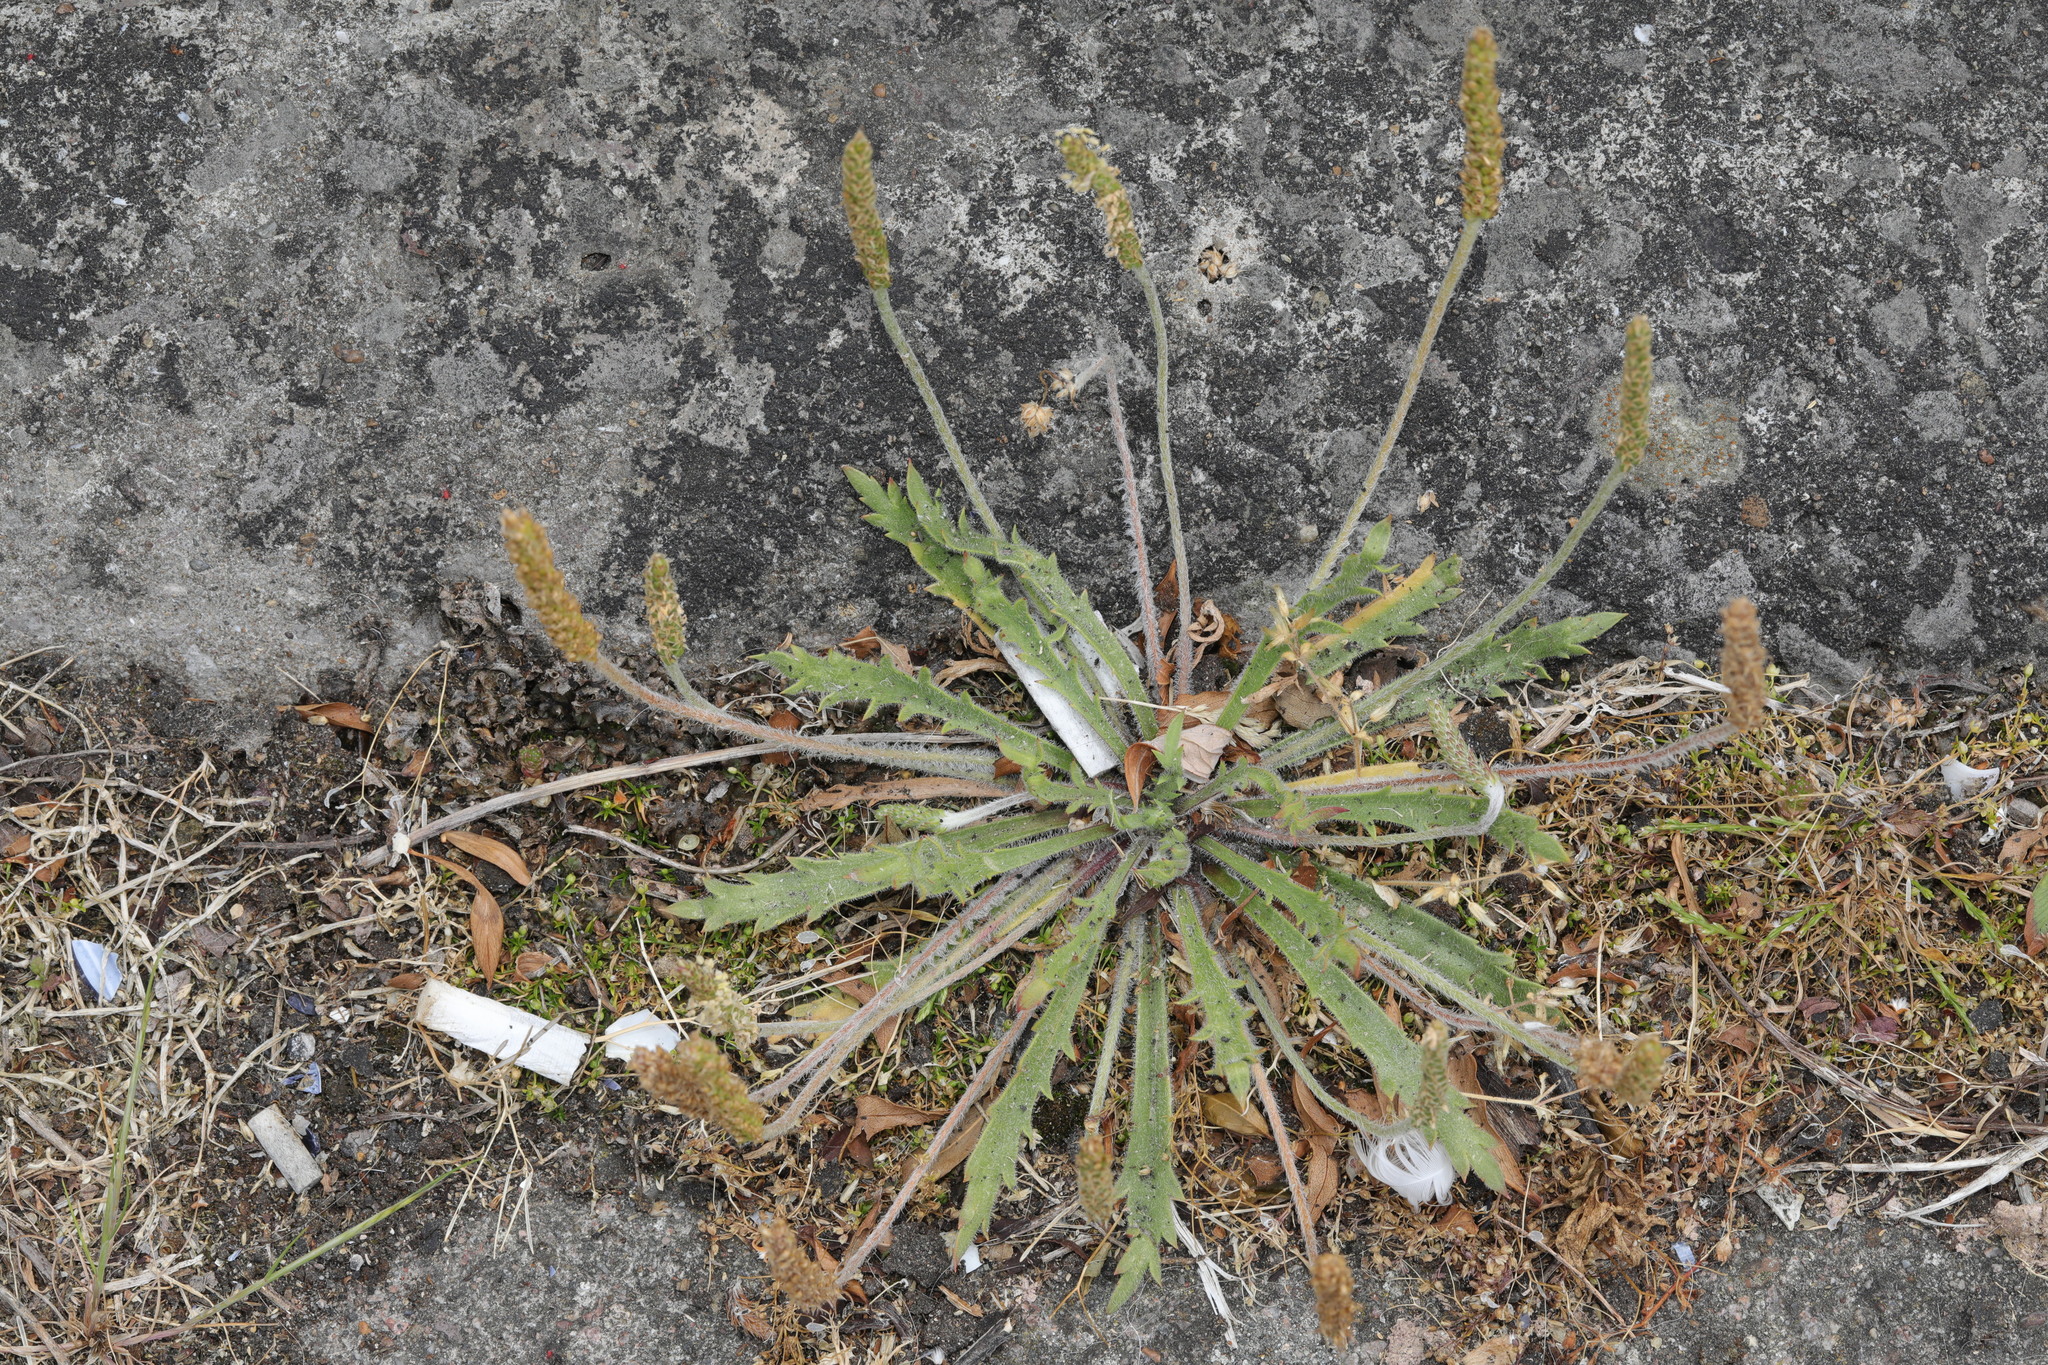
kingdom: Plantae
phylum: Tracheophyta
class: Magnoliopsida
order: Lamiales
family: Plantaginaceae
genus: Plantago
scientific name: Plantago coronopus
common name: Buck's-horn plantain
